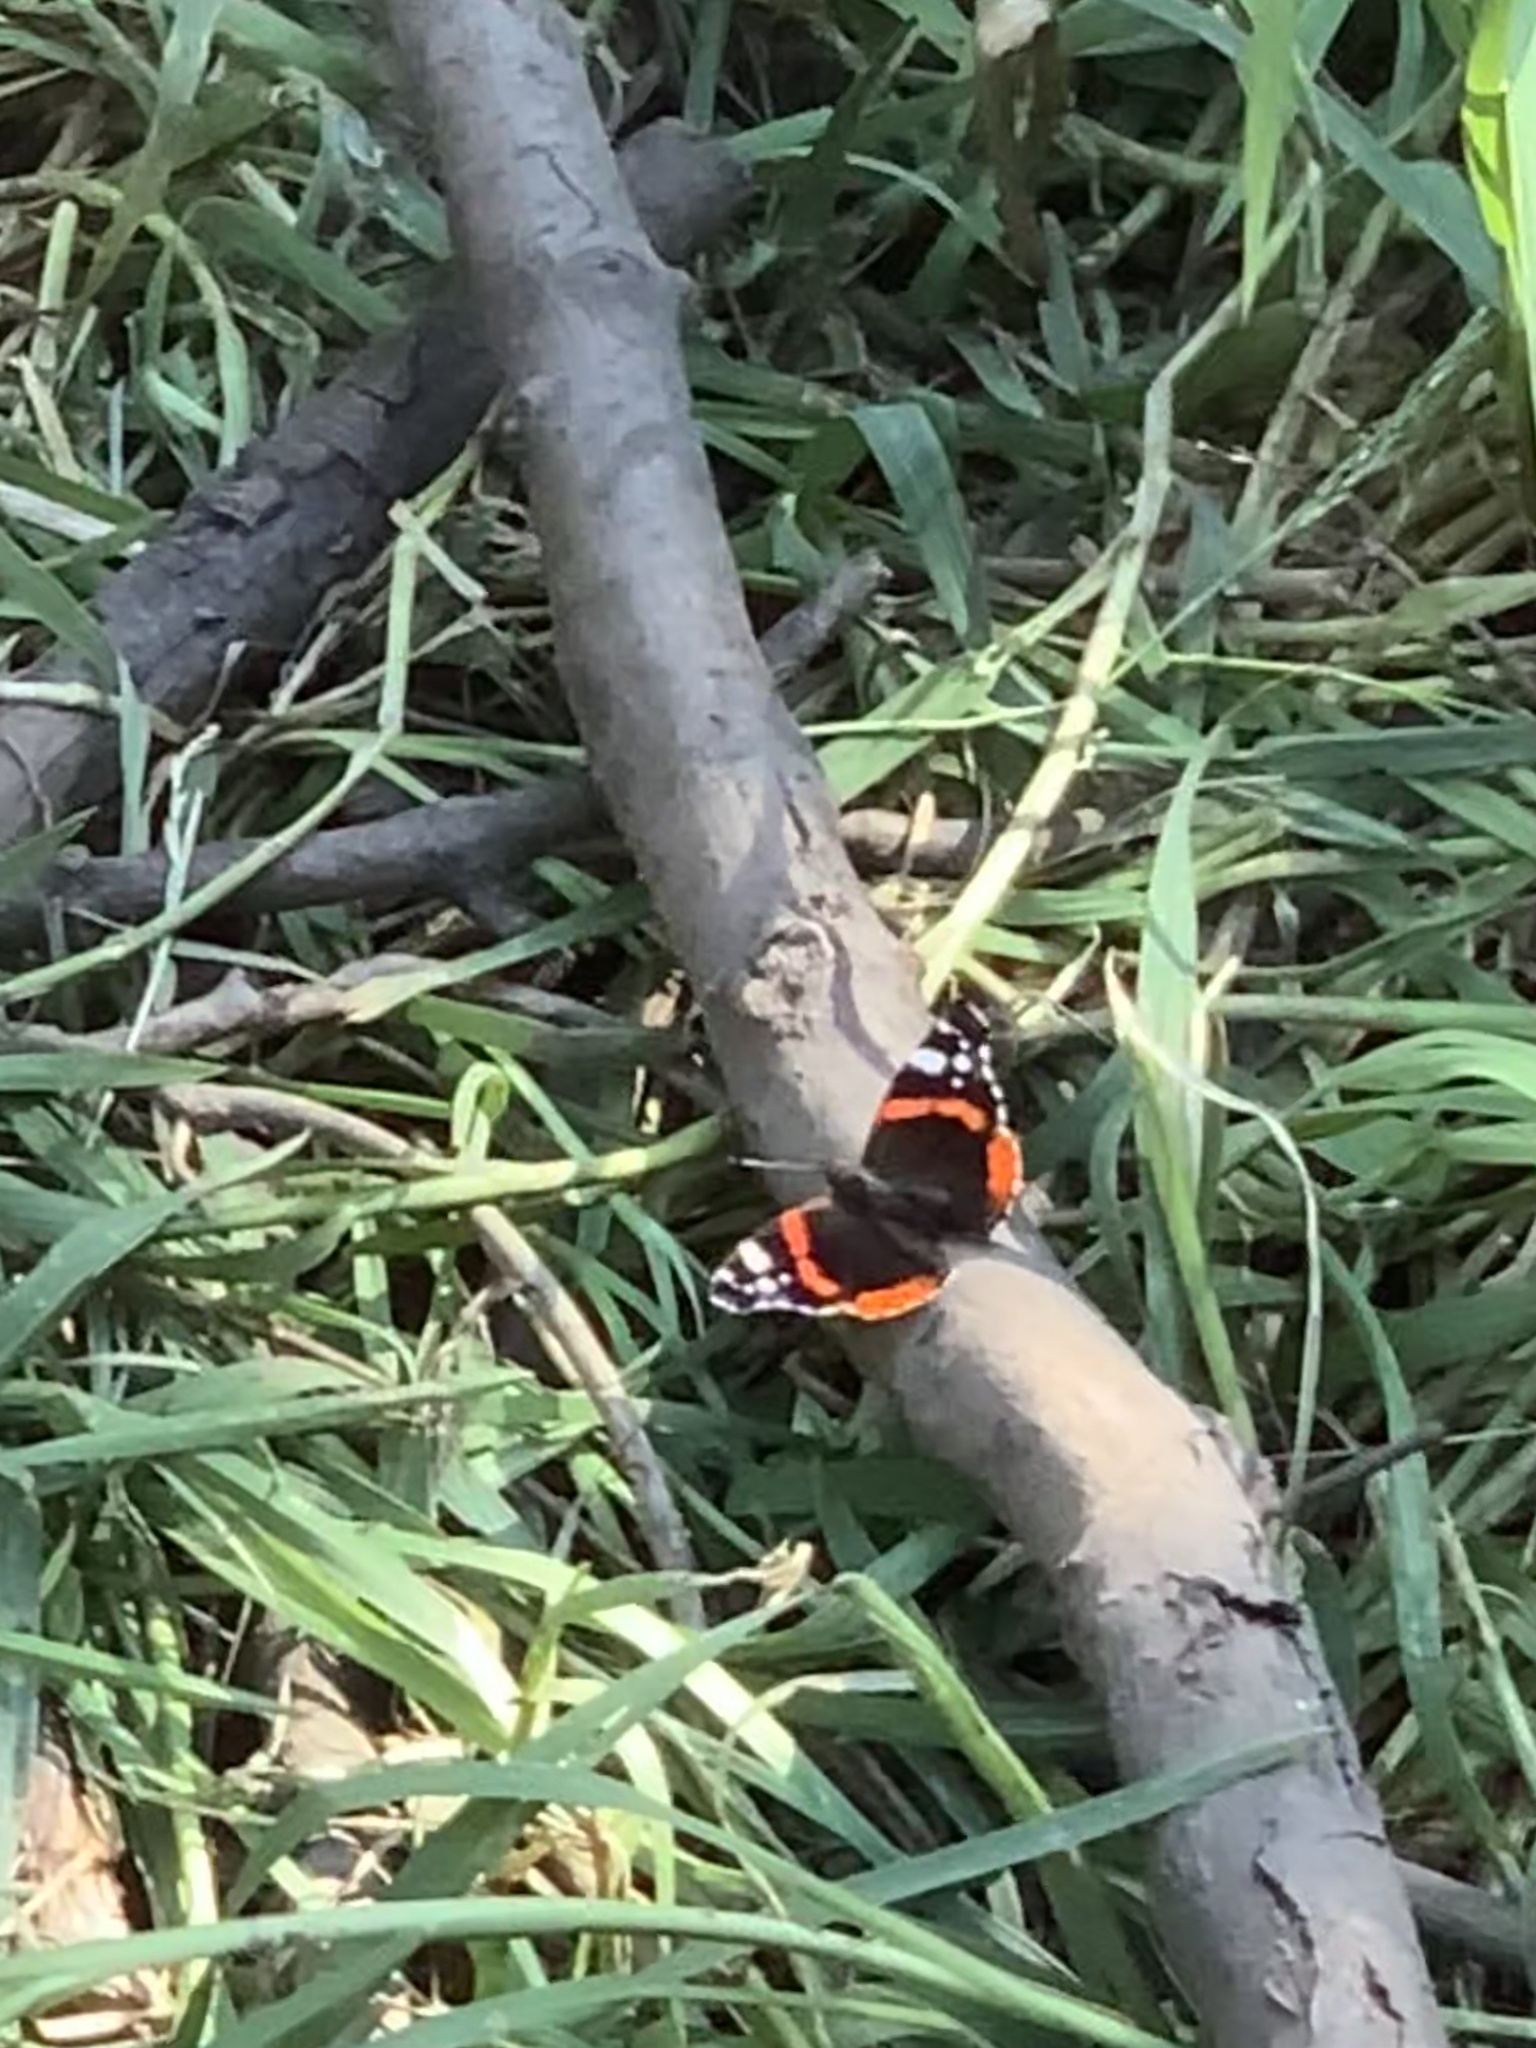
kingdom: Animalia
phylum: Arthropoda
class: Insecta
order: Lepidoptera
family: Nymphalidae
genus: Vanessa
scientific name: Vanessa atalanta
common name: Red admiral
